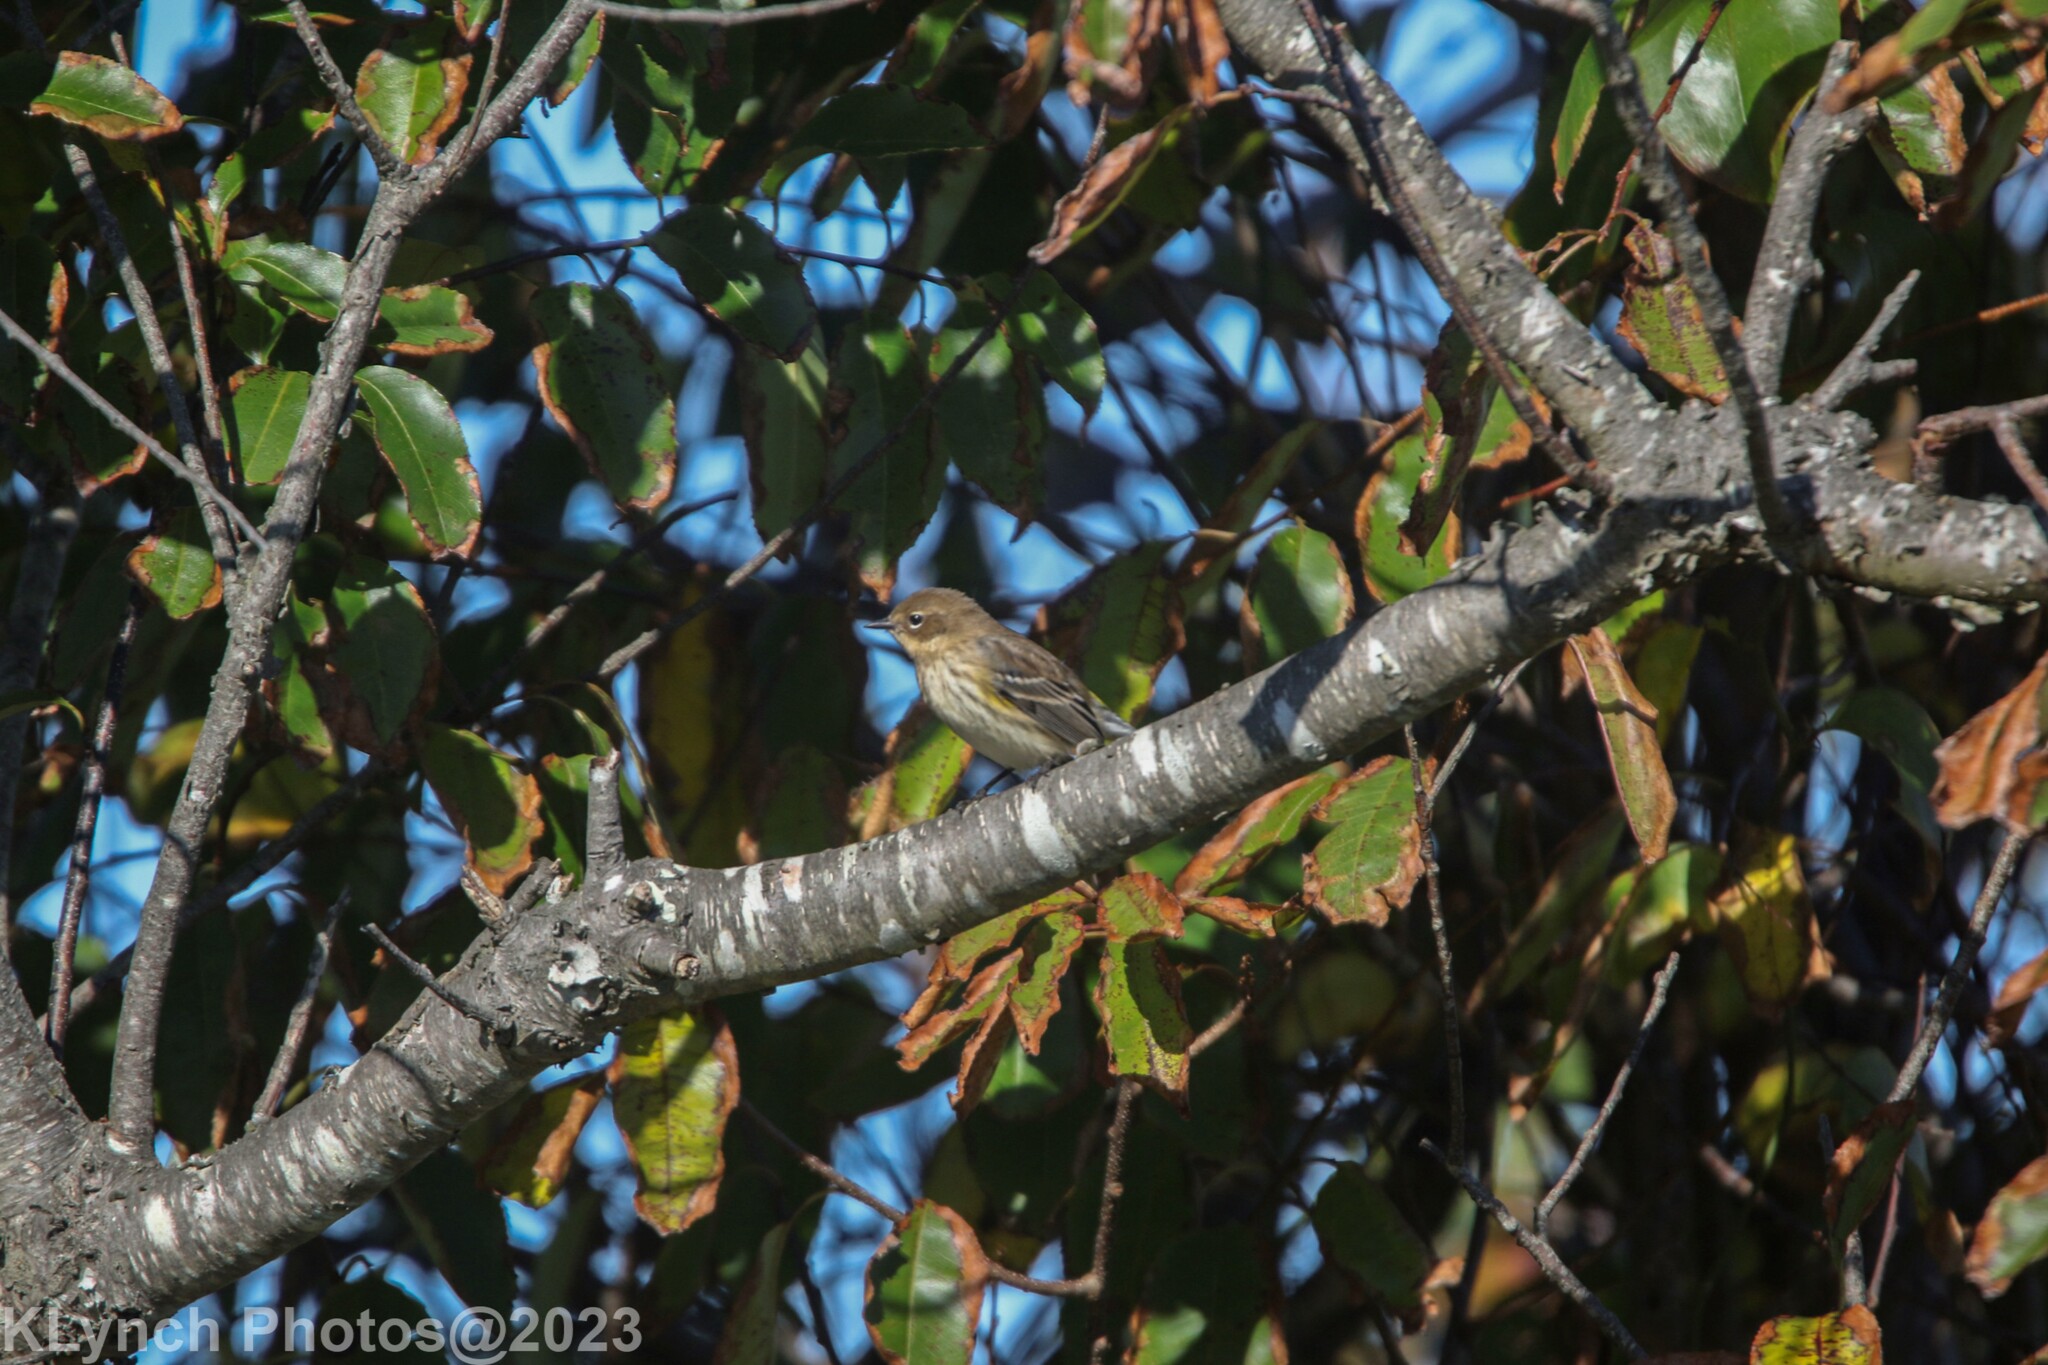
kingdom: Animalia
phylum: Chordata
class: Aves
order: Passeriformes
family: Parulidae
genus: Setophaga
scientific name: Setophaga coronata
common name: Myrtle warbler
